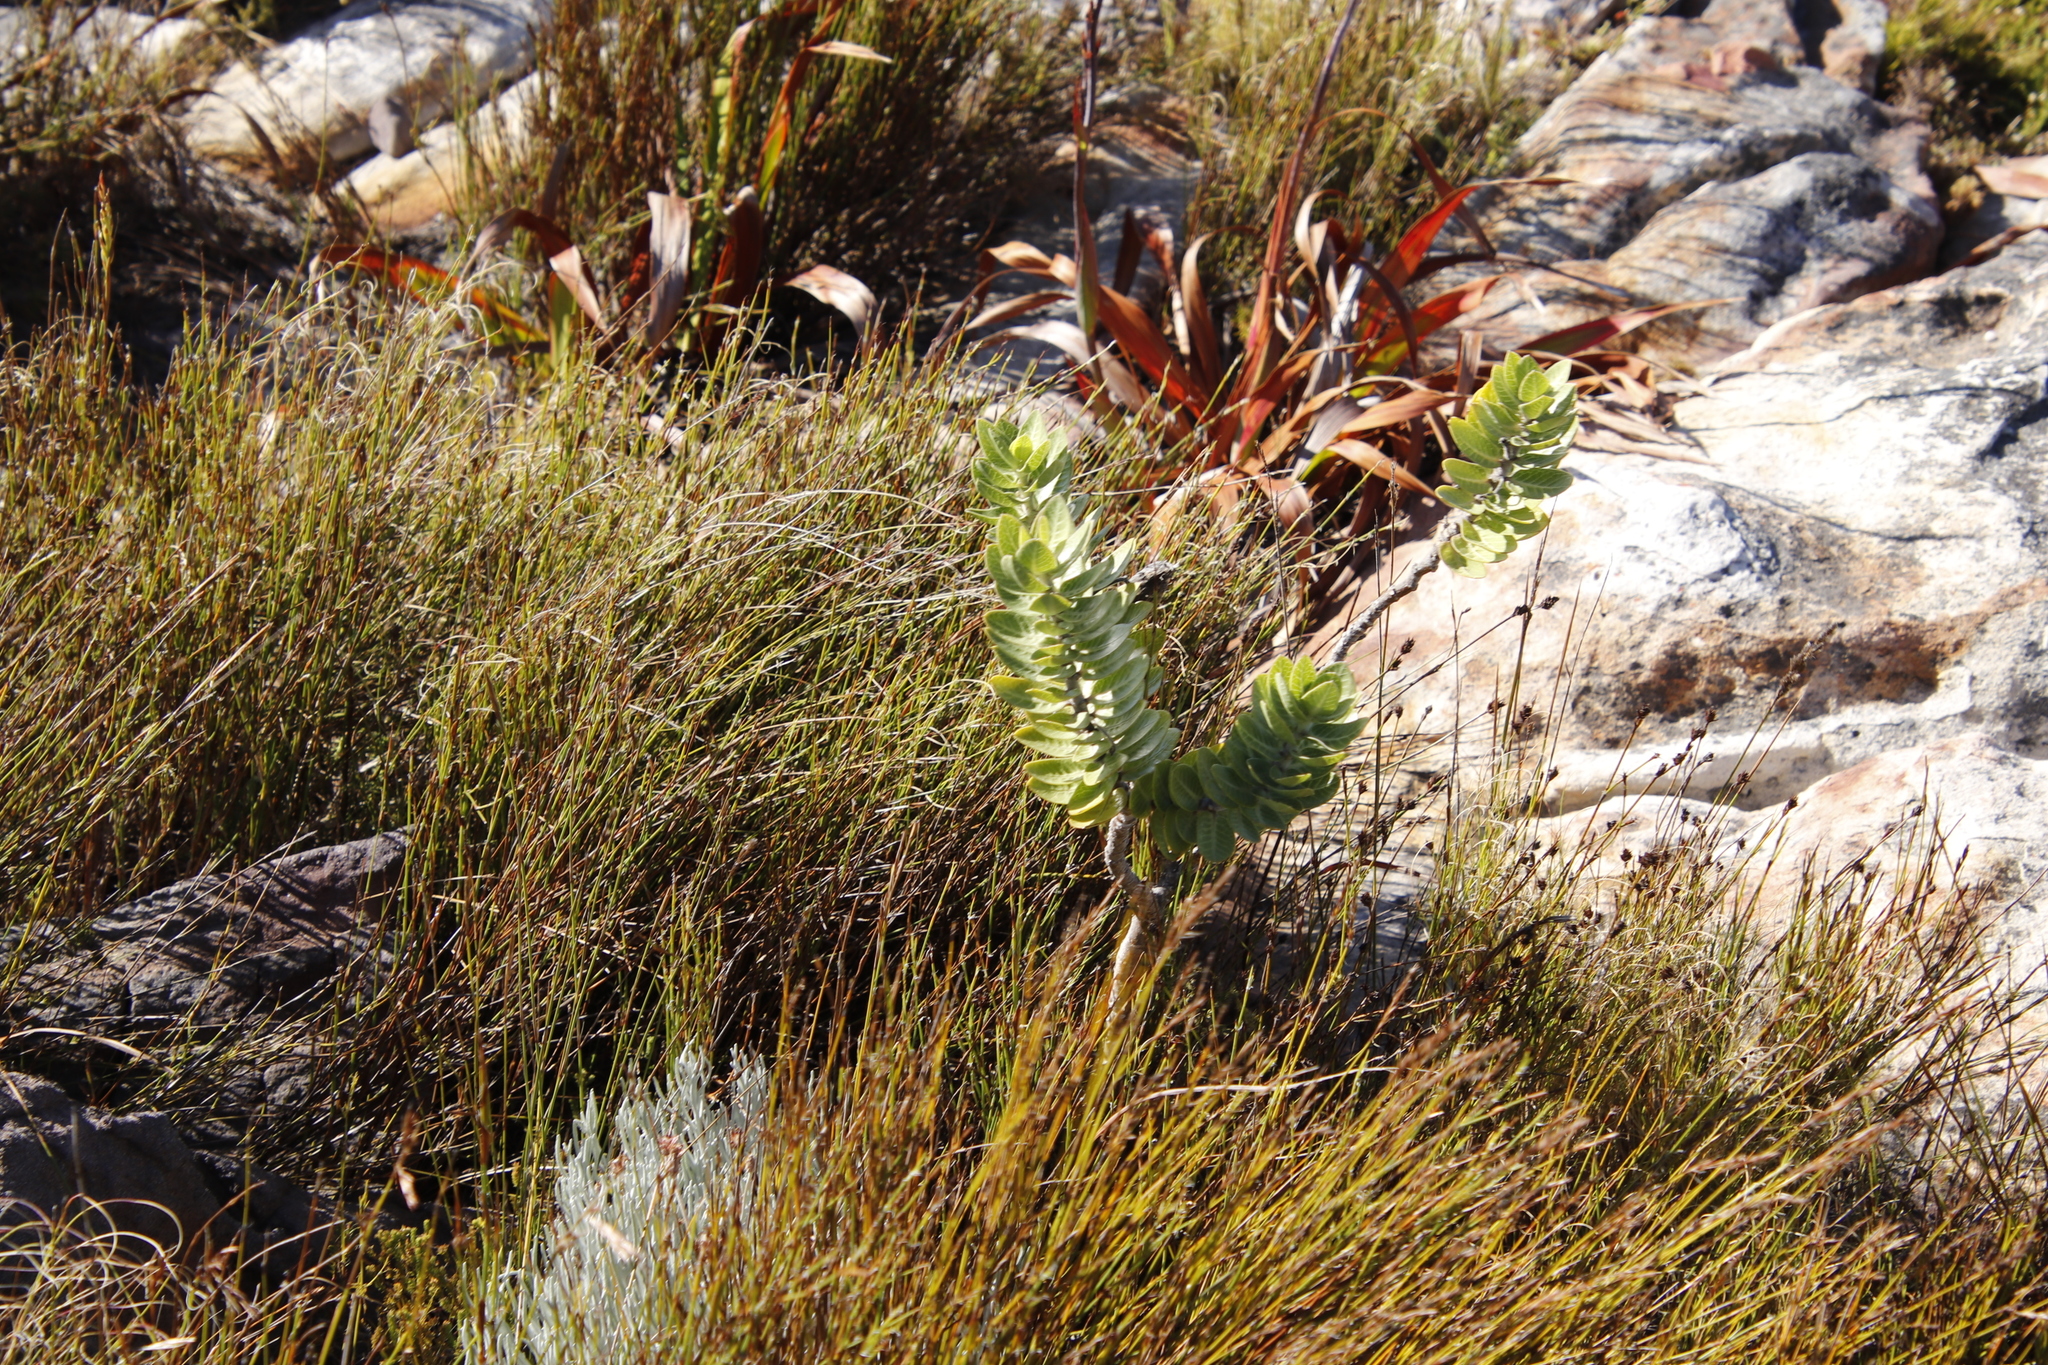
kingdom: Plantae
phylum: Tracheophyta
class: Magnoliopsida
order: Gentianales
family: Apocynaceae
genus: Gomphocarpus
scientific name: Gomphocarpus cancellatus
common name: Wild cotton
